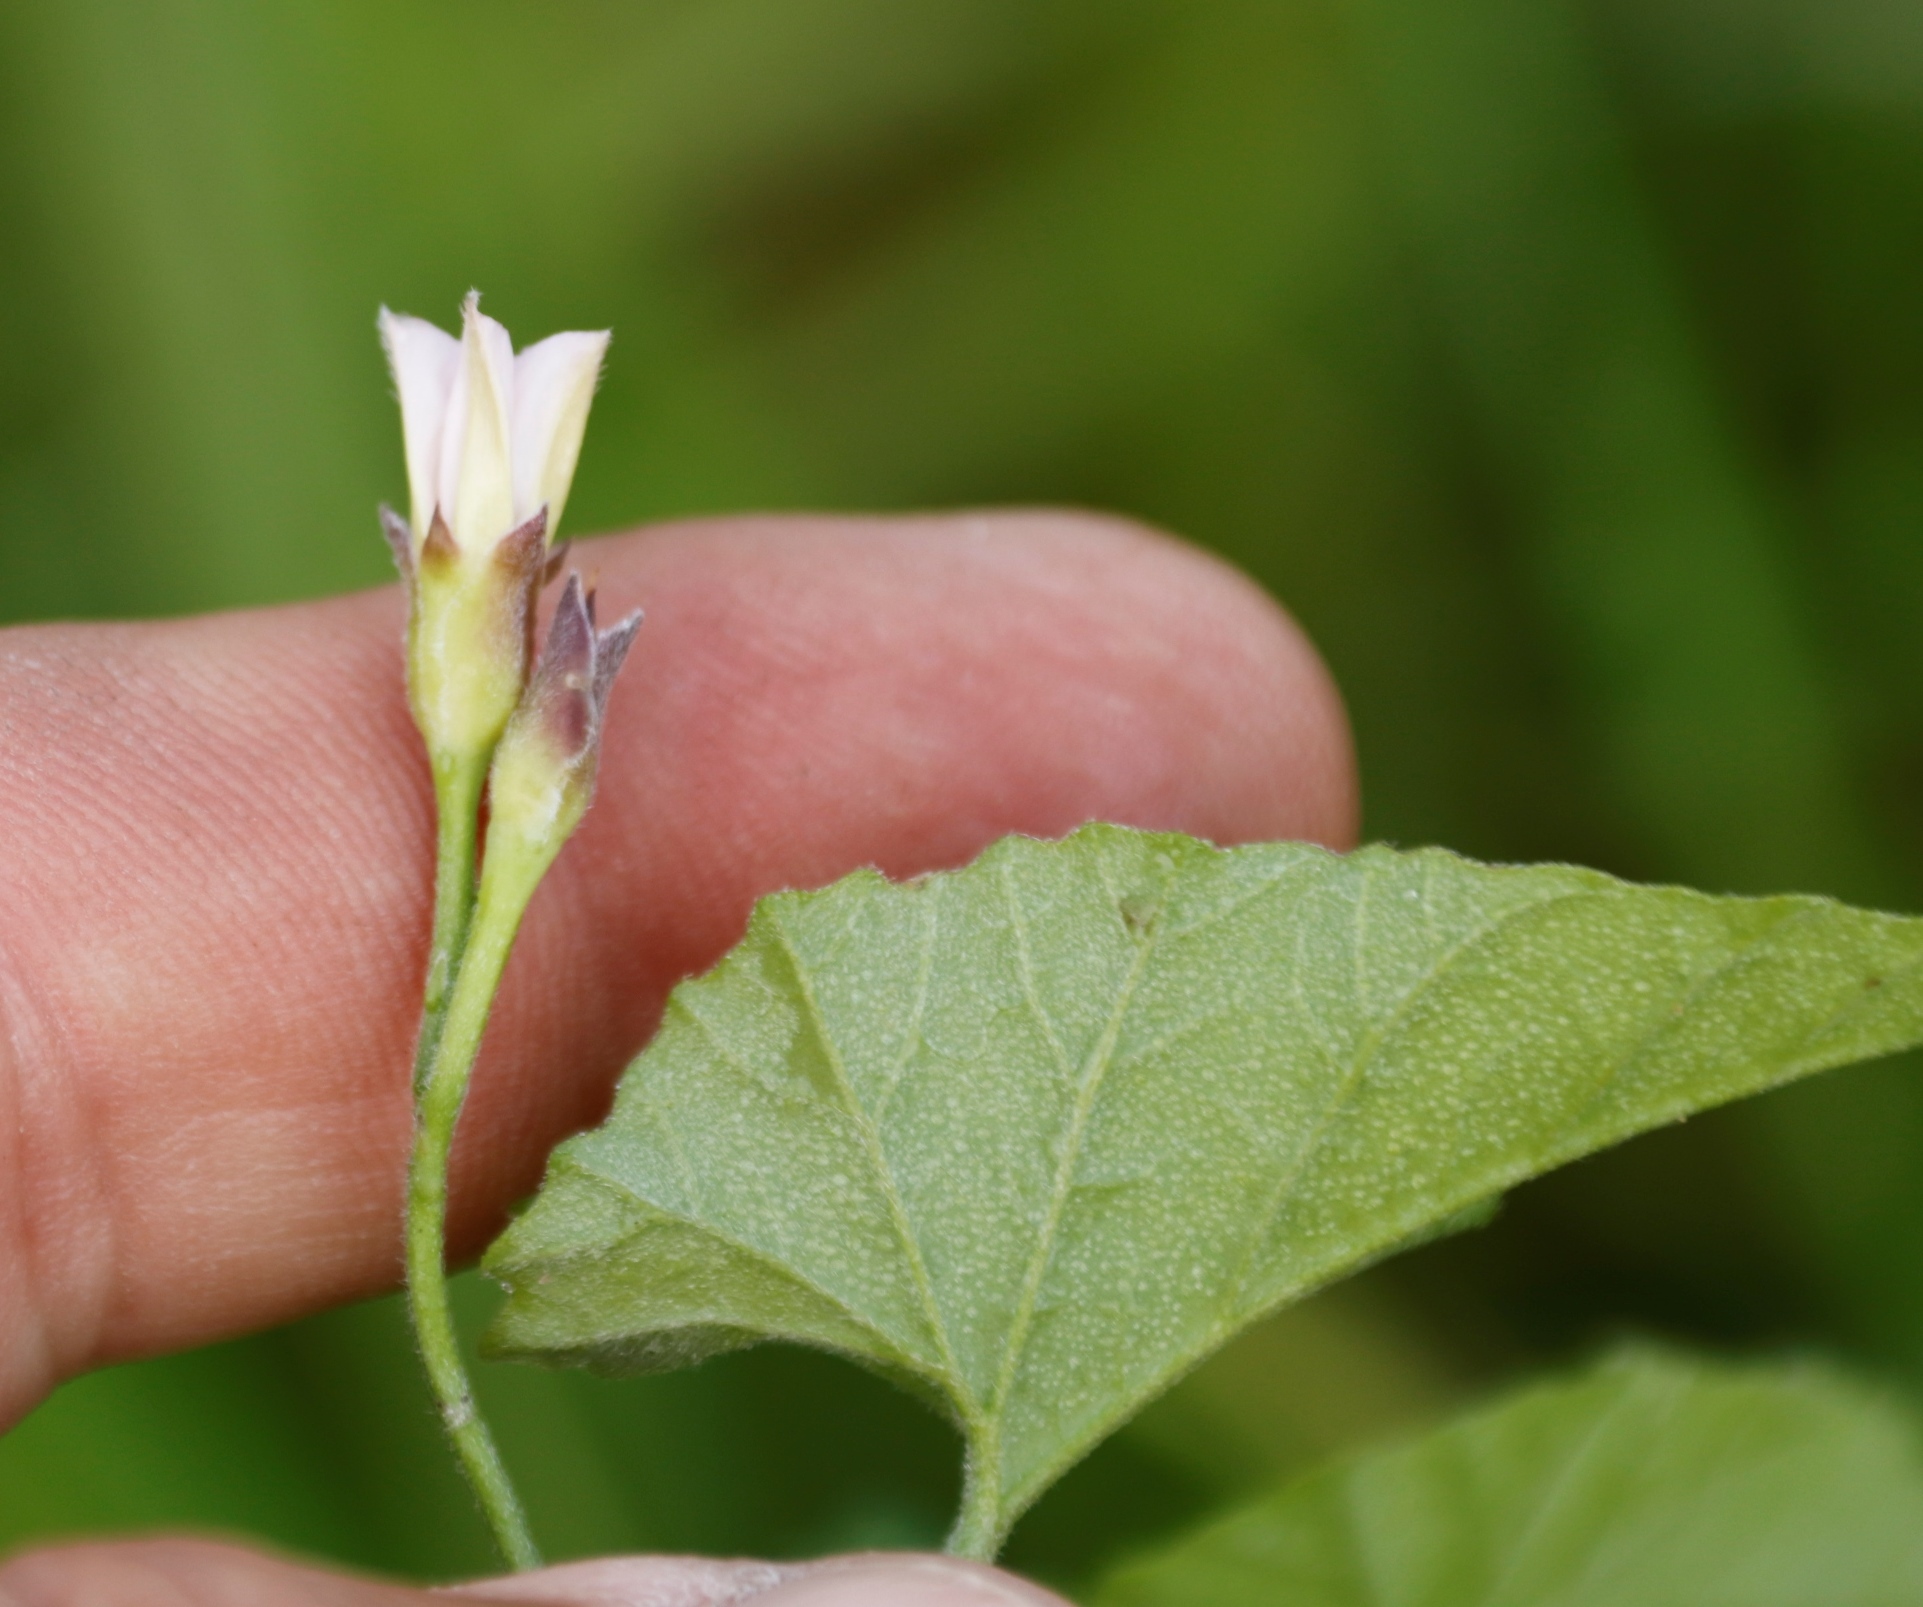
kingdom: Plantae
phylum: Tracheophyta
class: Magnoliopsida
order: Solanales
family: Convolvulaceae
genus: Convolvulus
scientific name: Convolvulus farinosus
